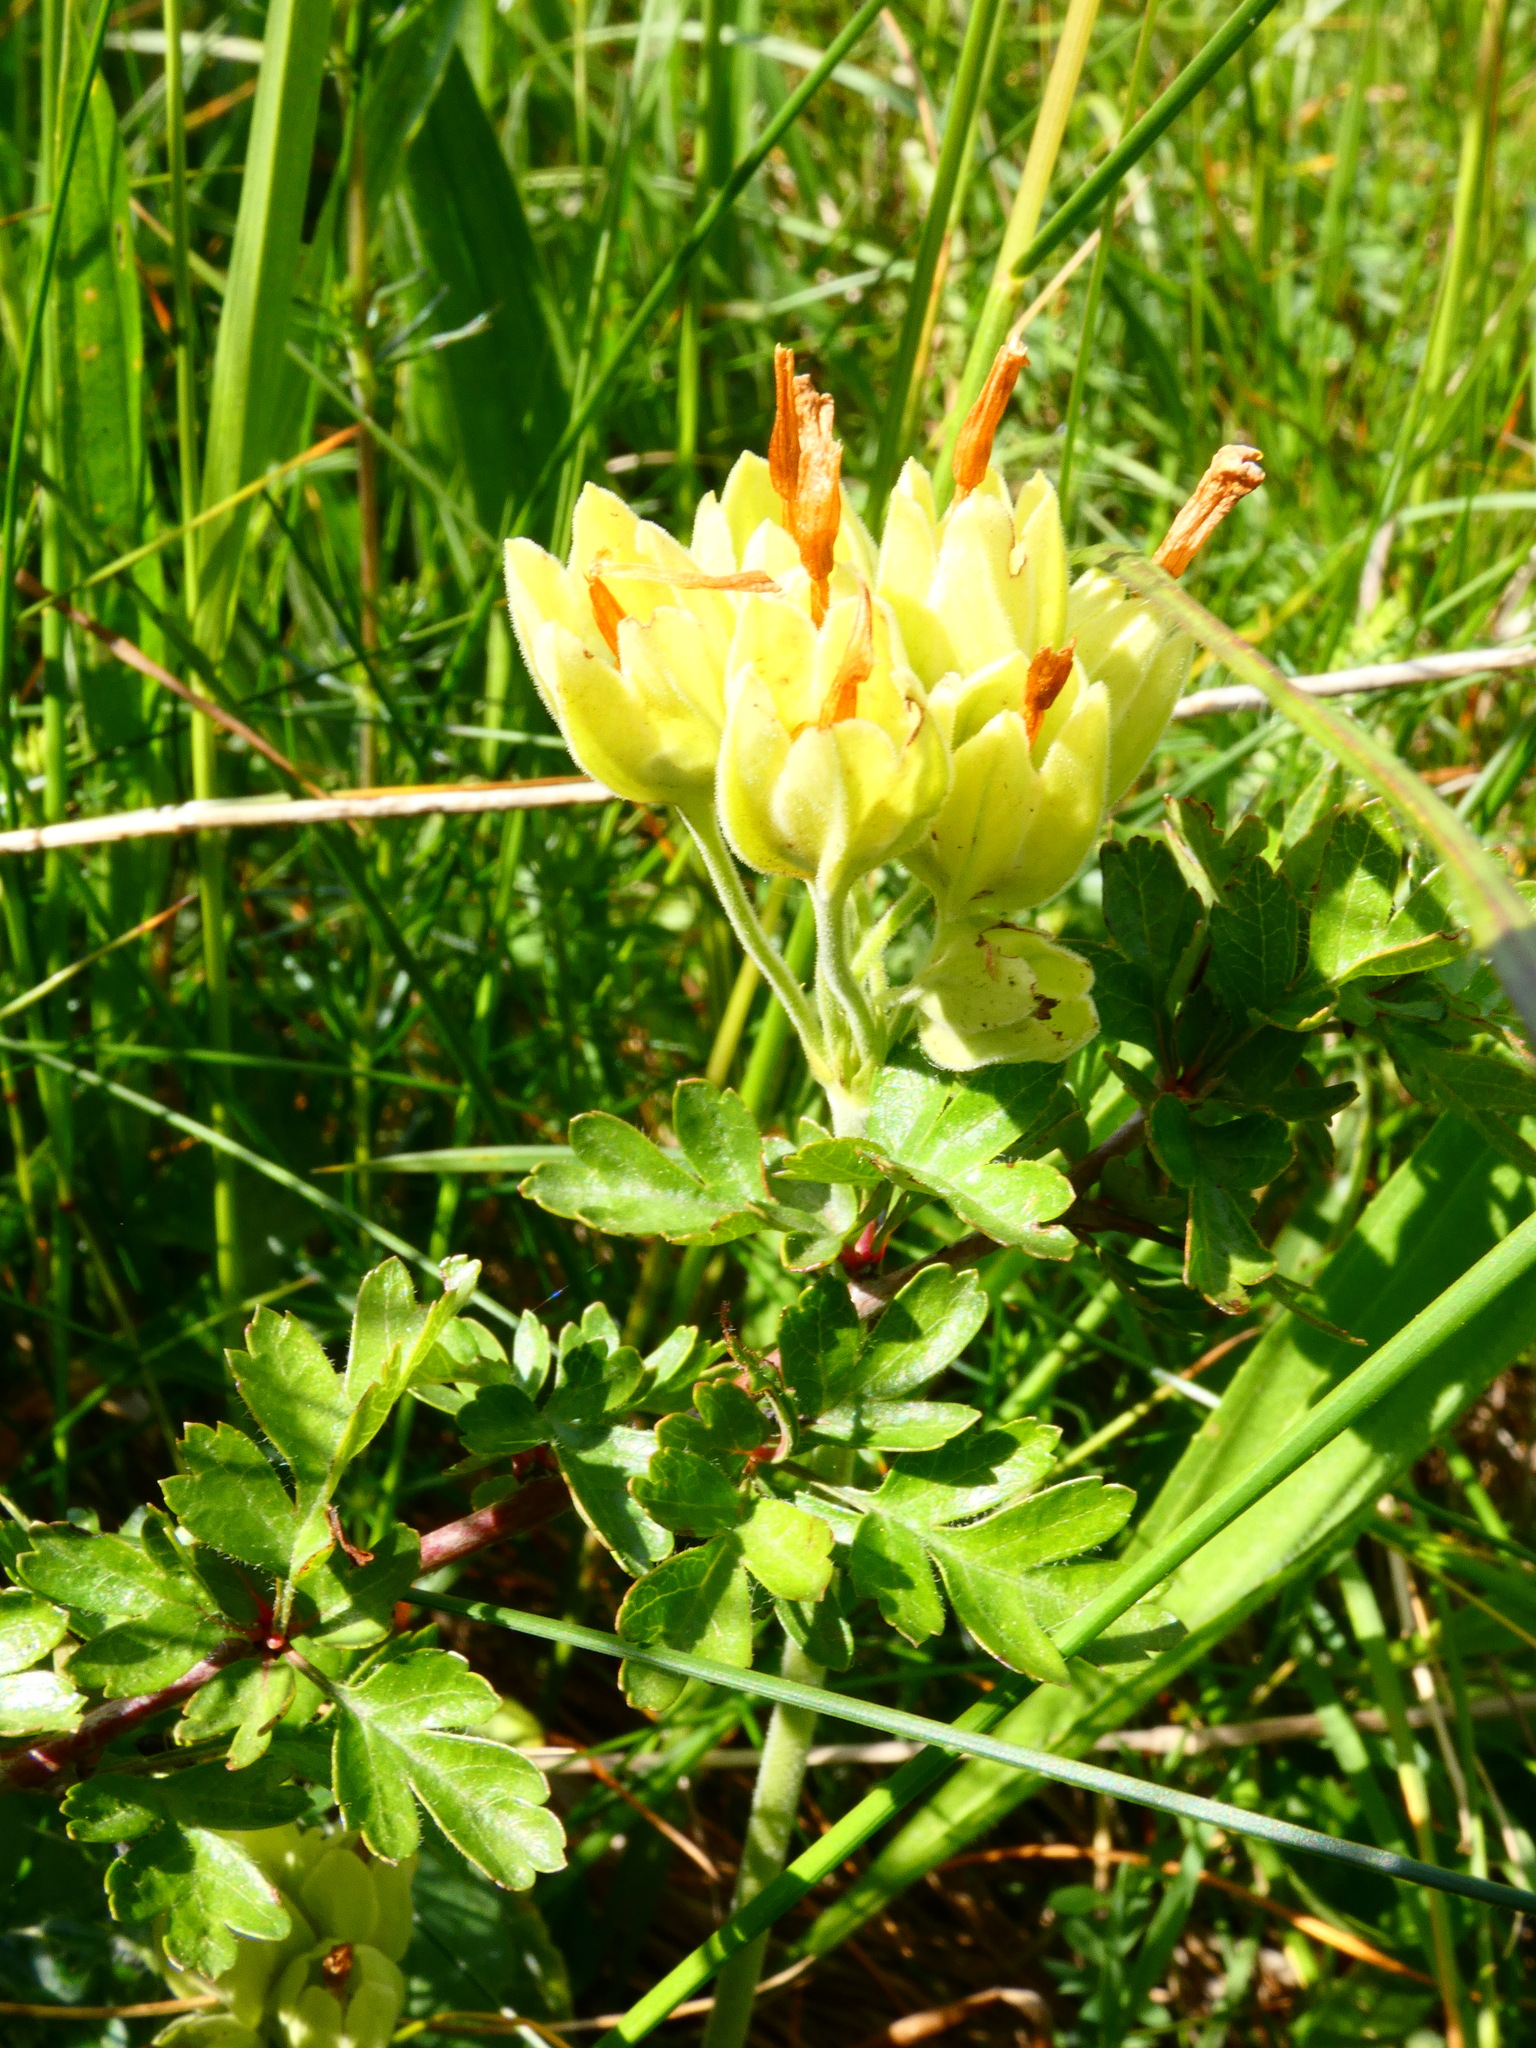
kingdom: Plantae
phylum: Tracheophyta
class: Magnoliopsida
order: Ericales
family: Primulaceae
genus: Primula
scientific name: Primula veris
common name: Cowslip
